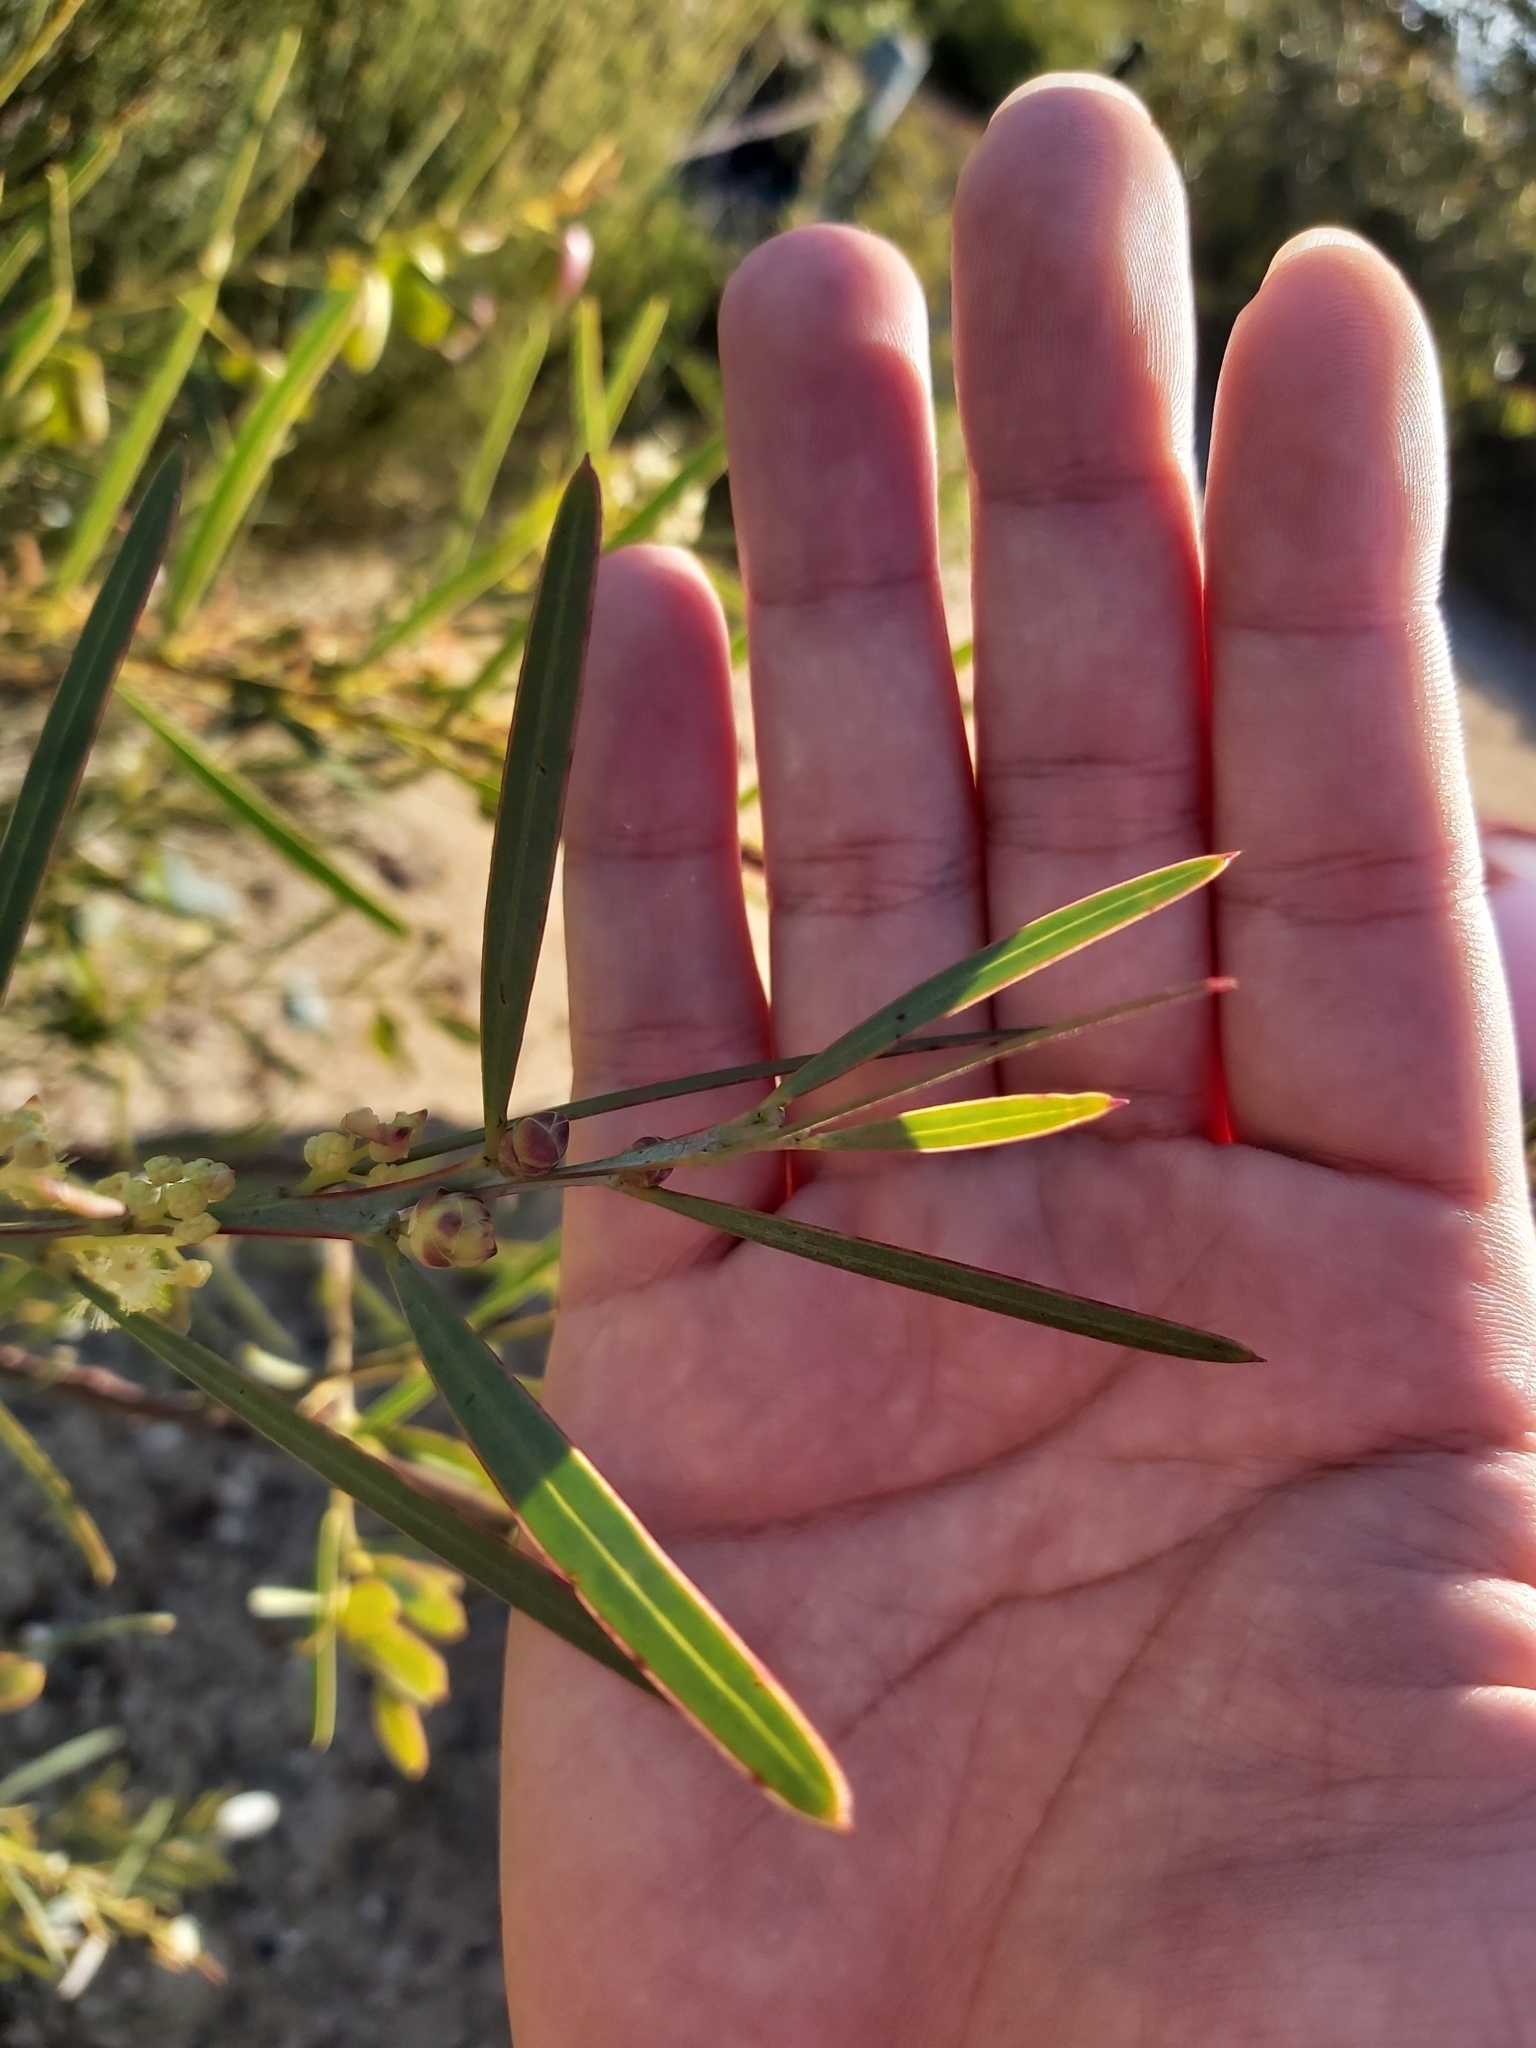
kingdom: Plantae
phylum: Tracheophyta
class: Magnoliopsida
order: Fabales
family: Fabaceae
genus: Acacia
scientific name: Acacia suaveolens
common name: Sweet acacia
